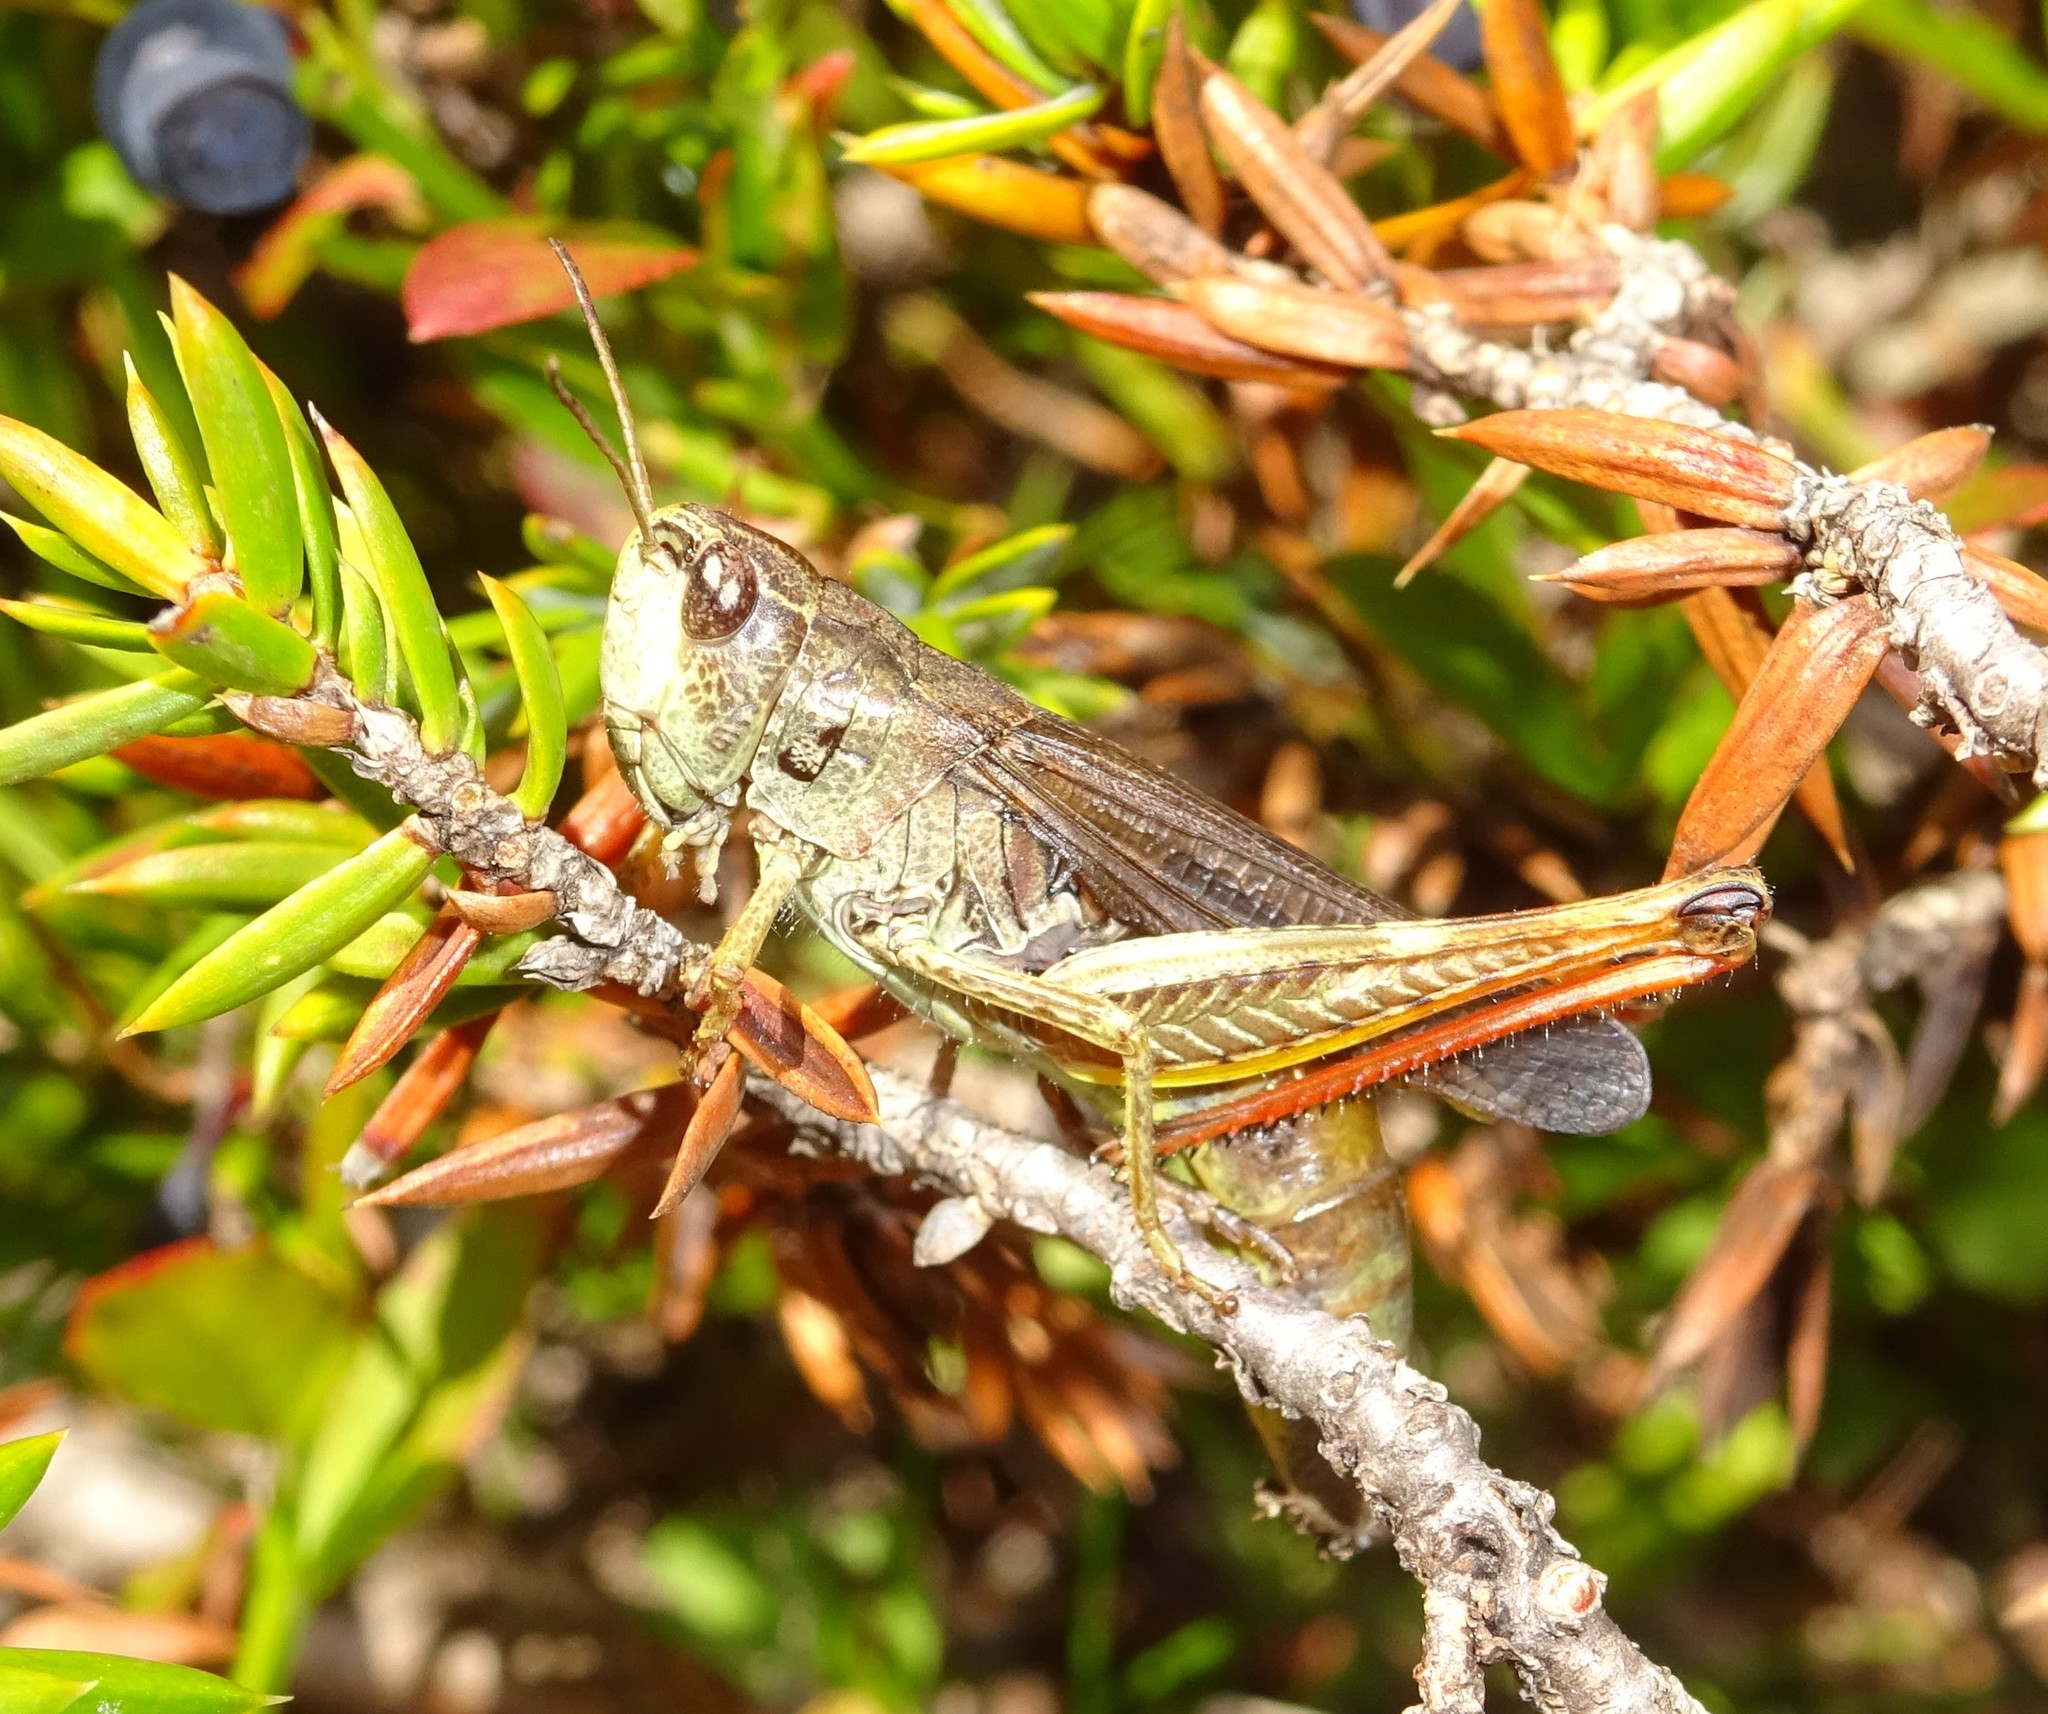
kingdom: Animalia
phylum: Arthropoda
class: Insecta
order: Orthoptera
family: Acrididae
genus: Stauroderus
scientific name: Stauroderus scalaris
